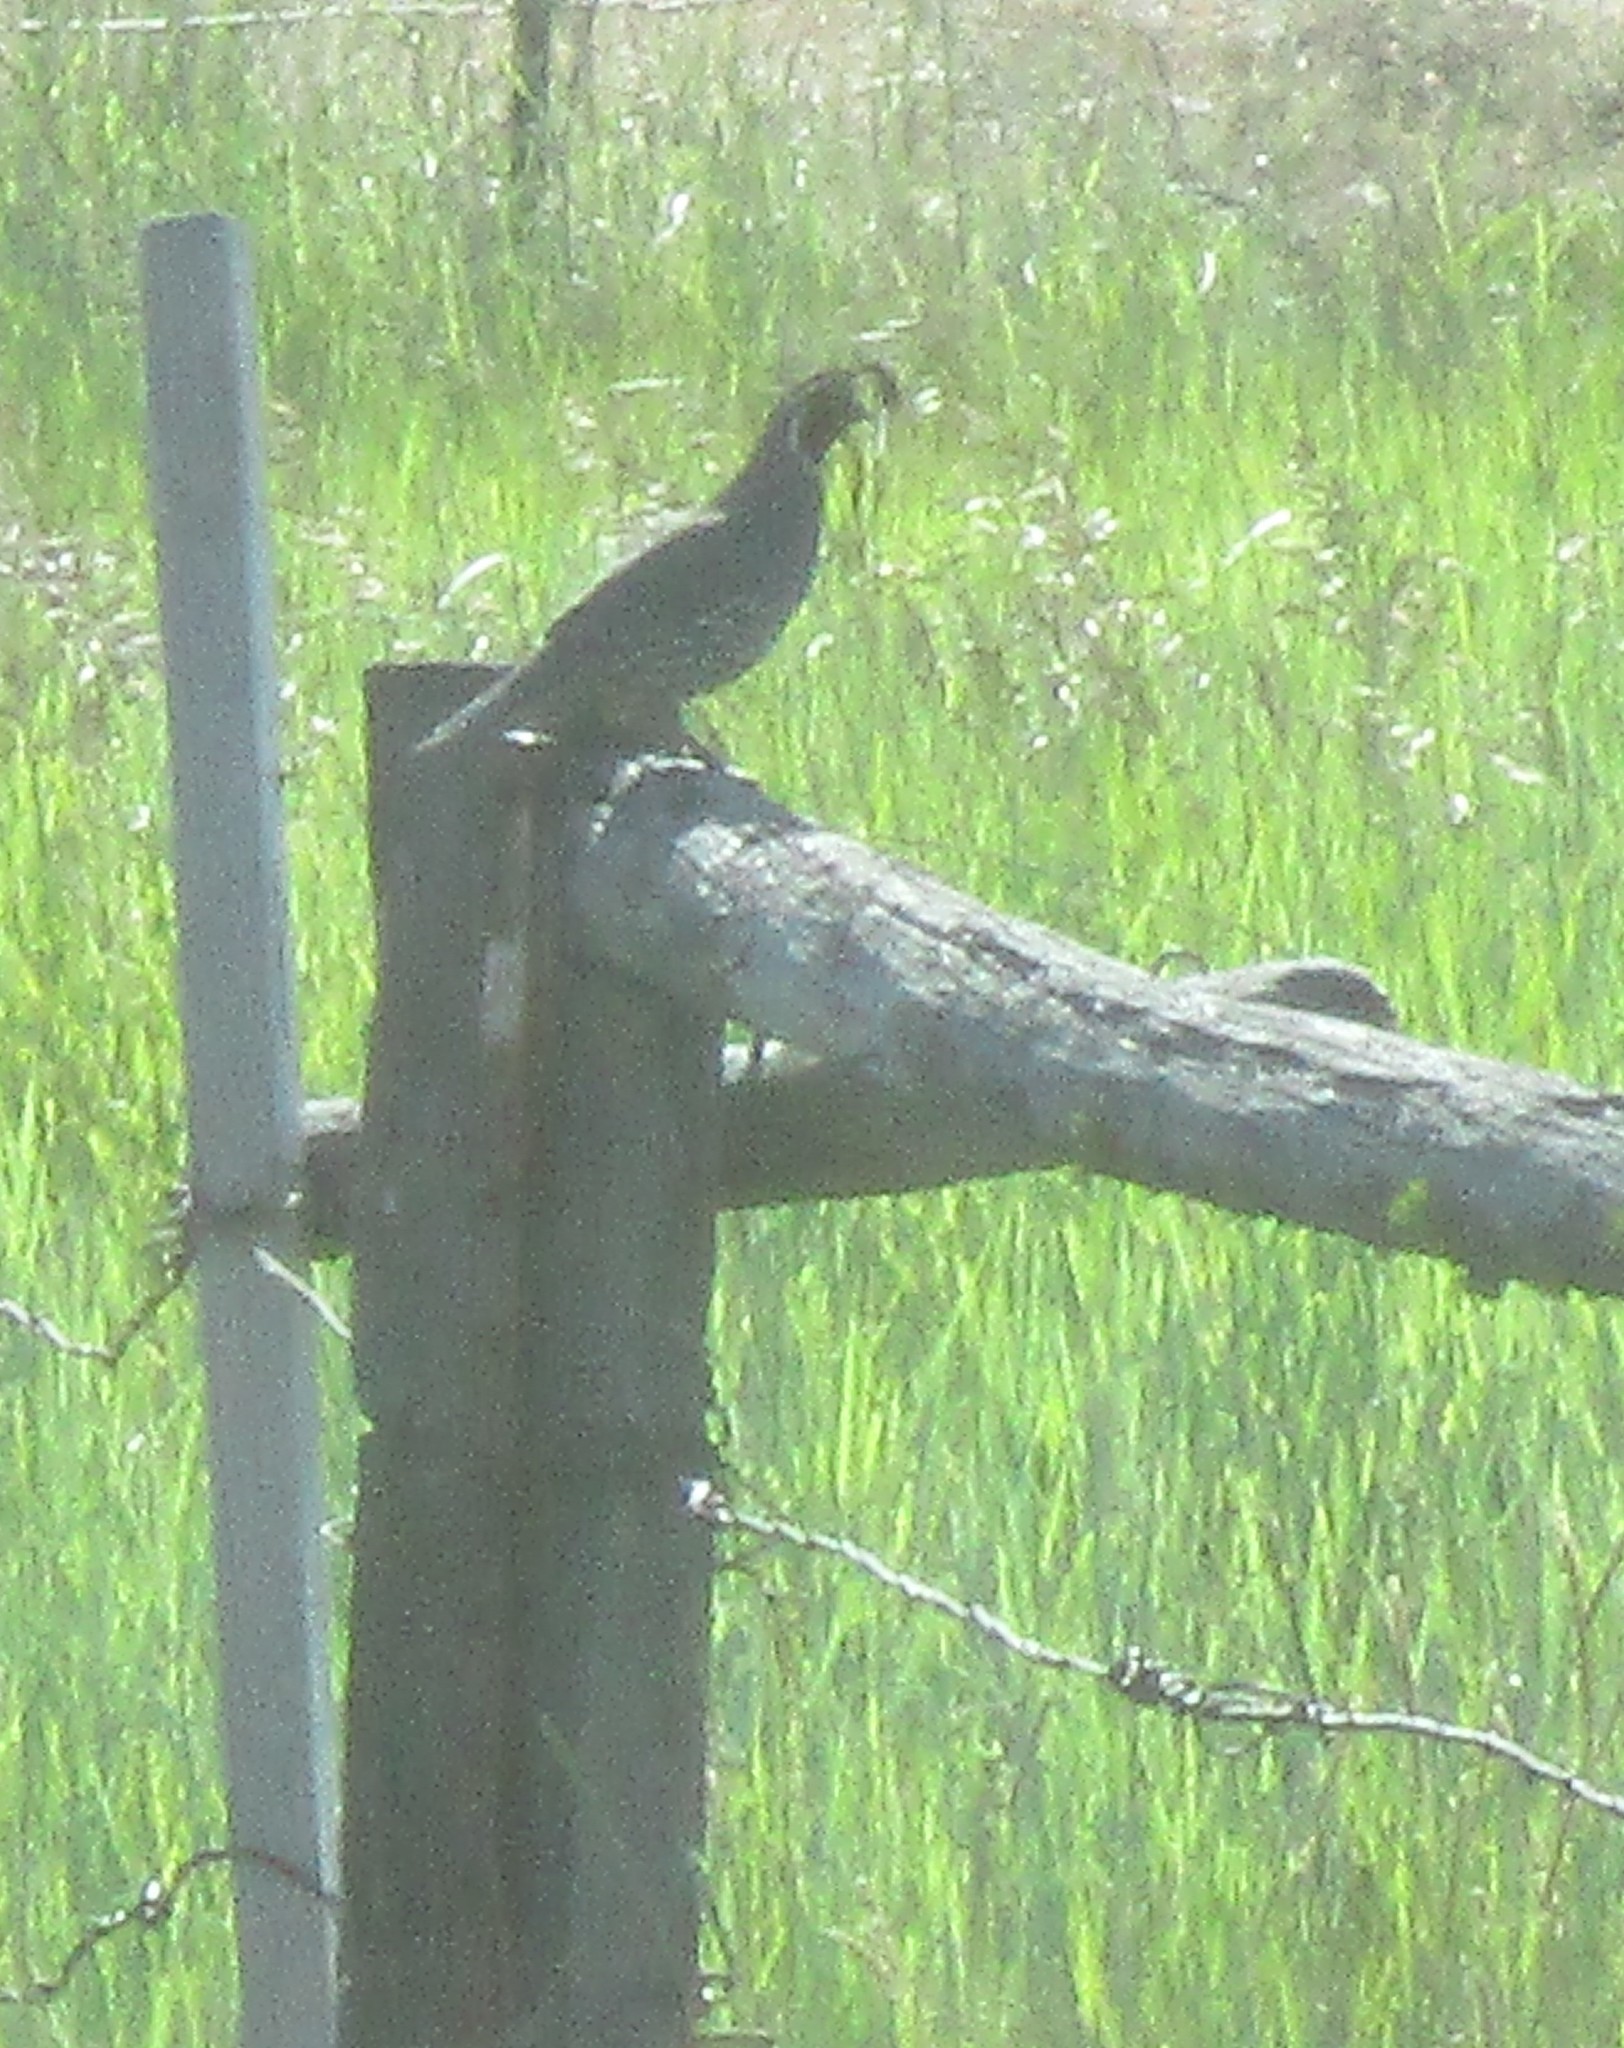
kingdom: Animalia
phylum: Chordata
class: Aves
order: Galliformes
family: Odontophoridae
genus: Callipepla
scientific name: Callipepla californica
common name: California quail
